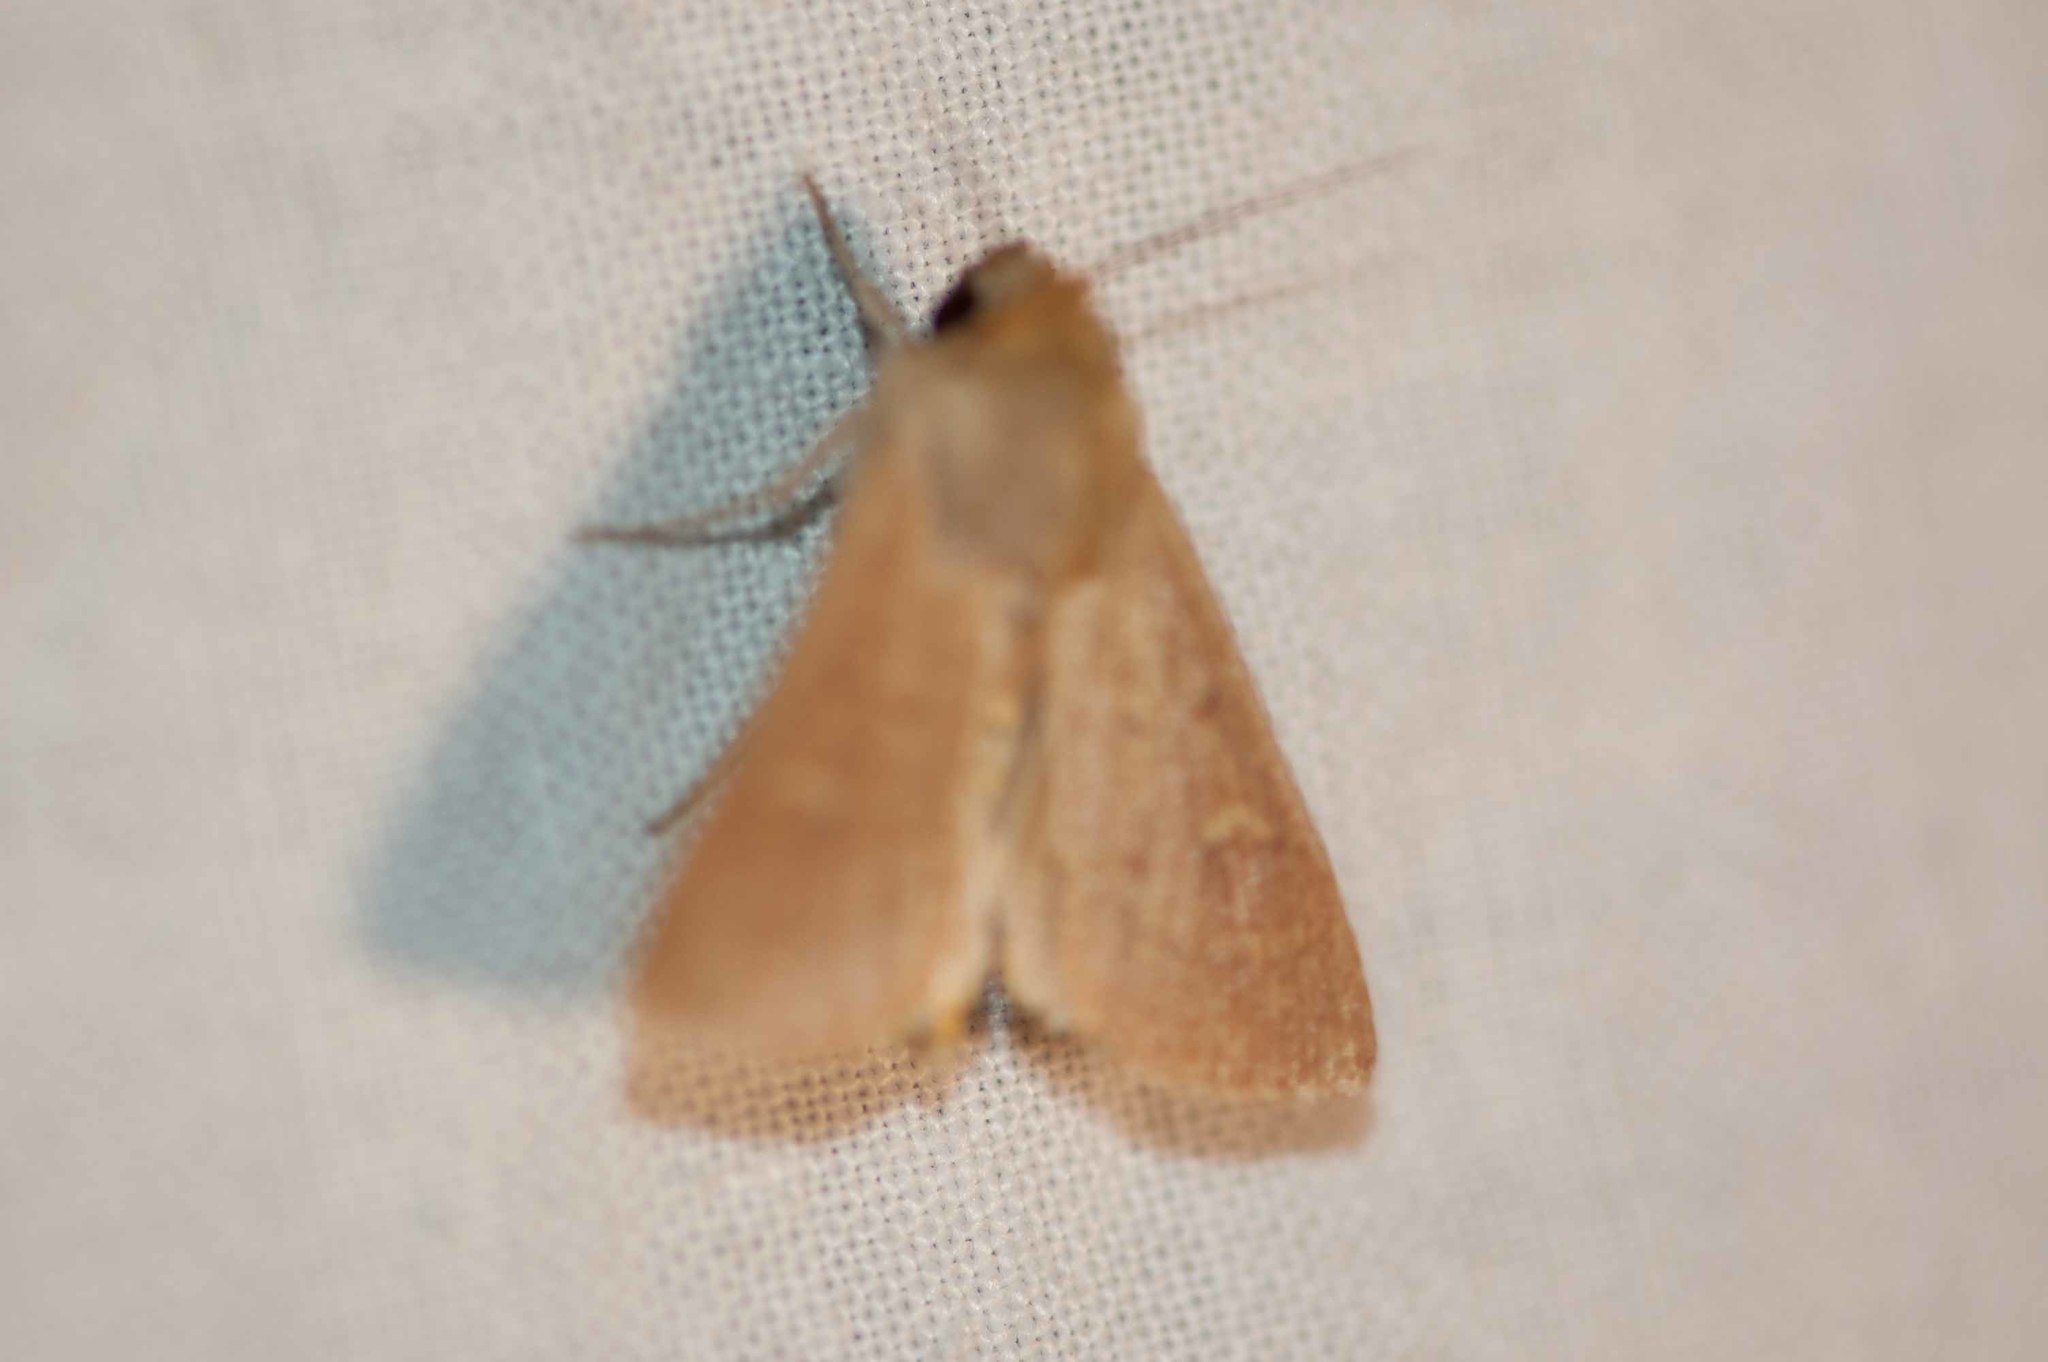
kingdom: Animalia
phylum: Arthropoda
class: Insecta
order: Lepidoptera
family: Noctuidae
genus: Mythimna
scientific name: Mythimna ferrago
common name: Clay
